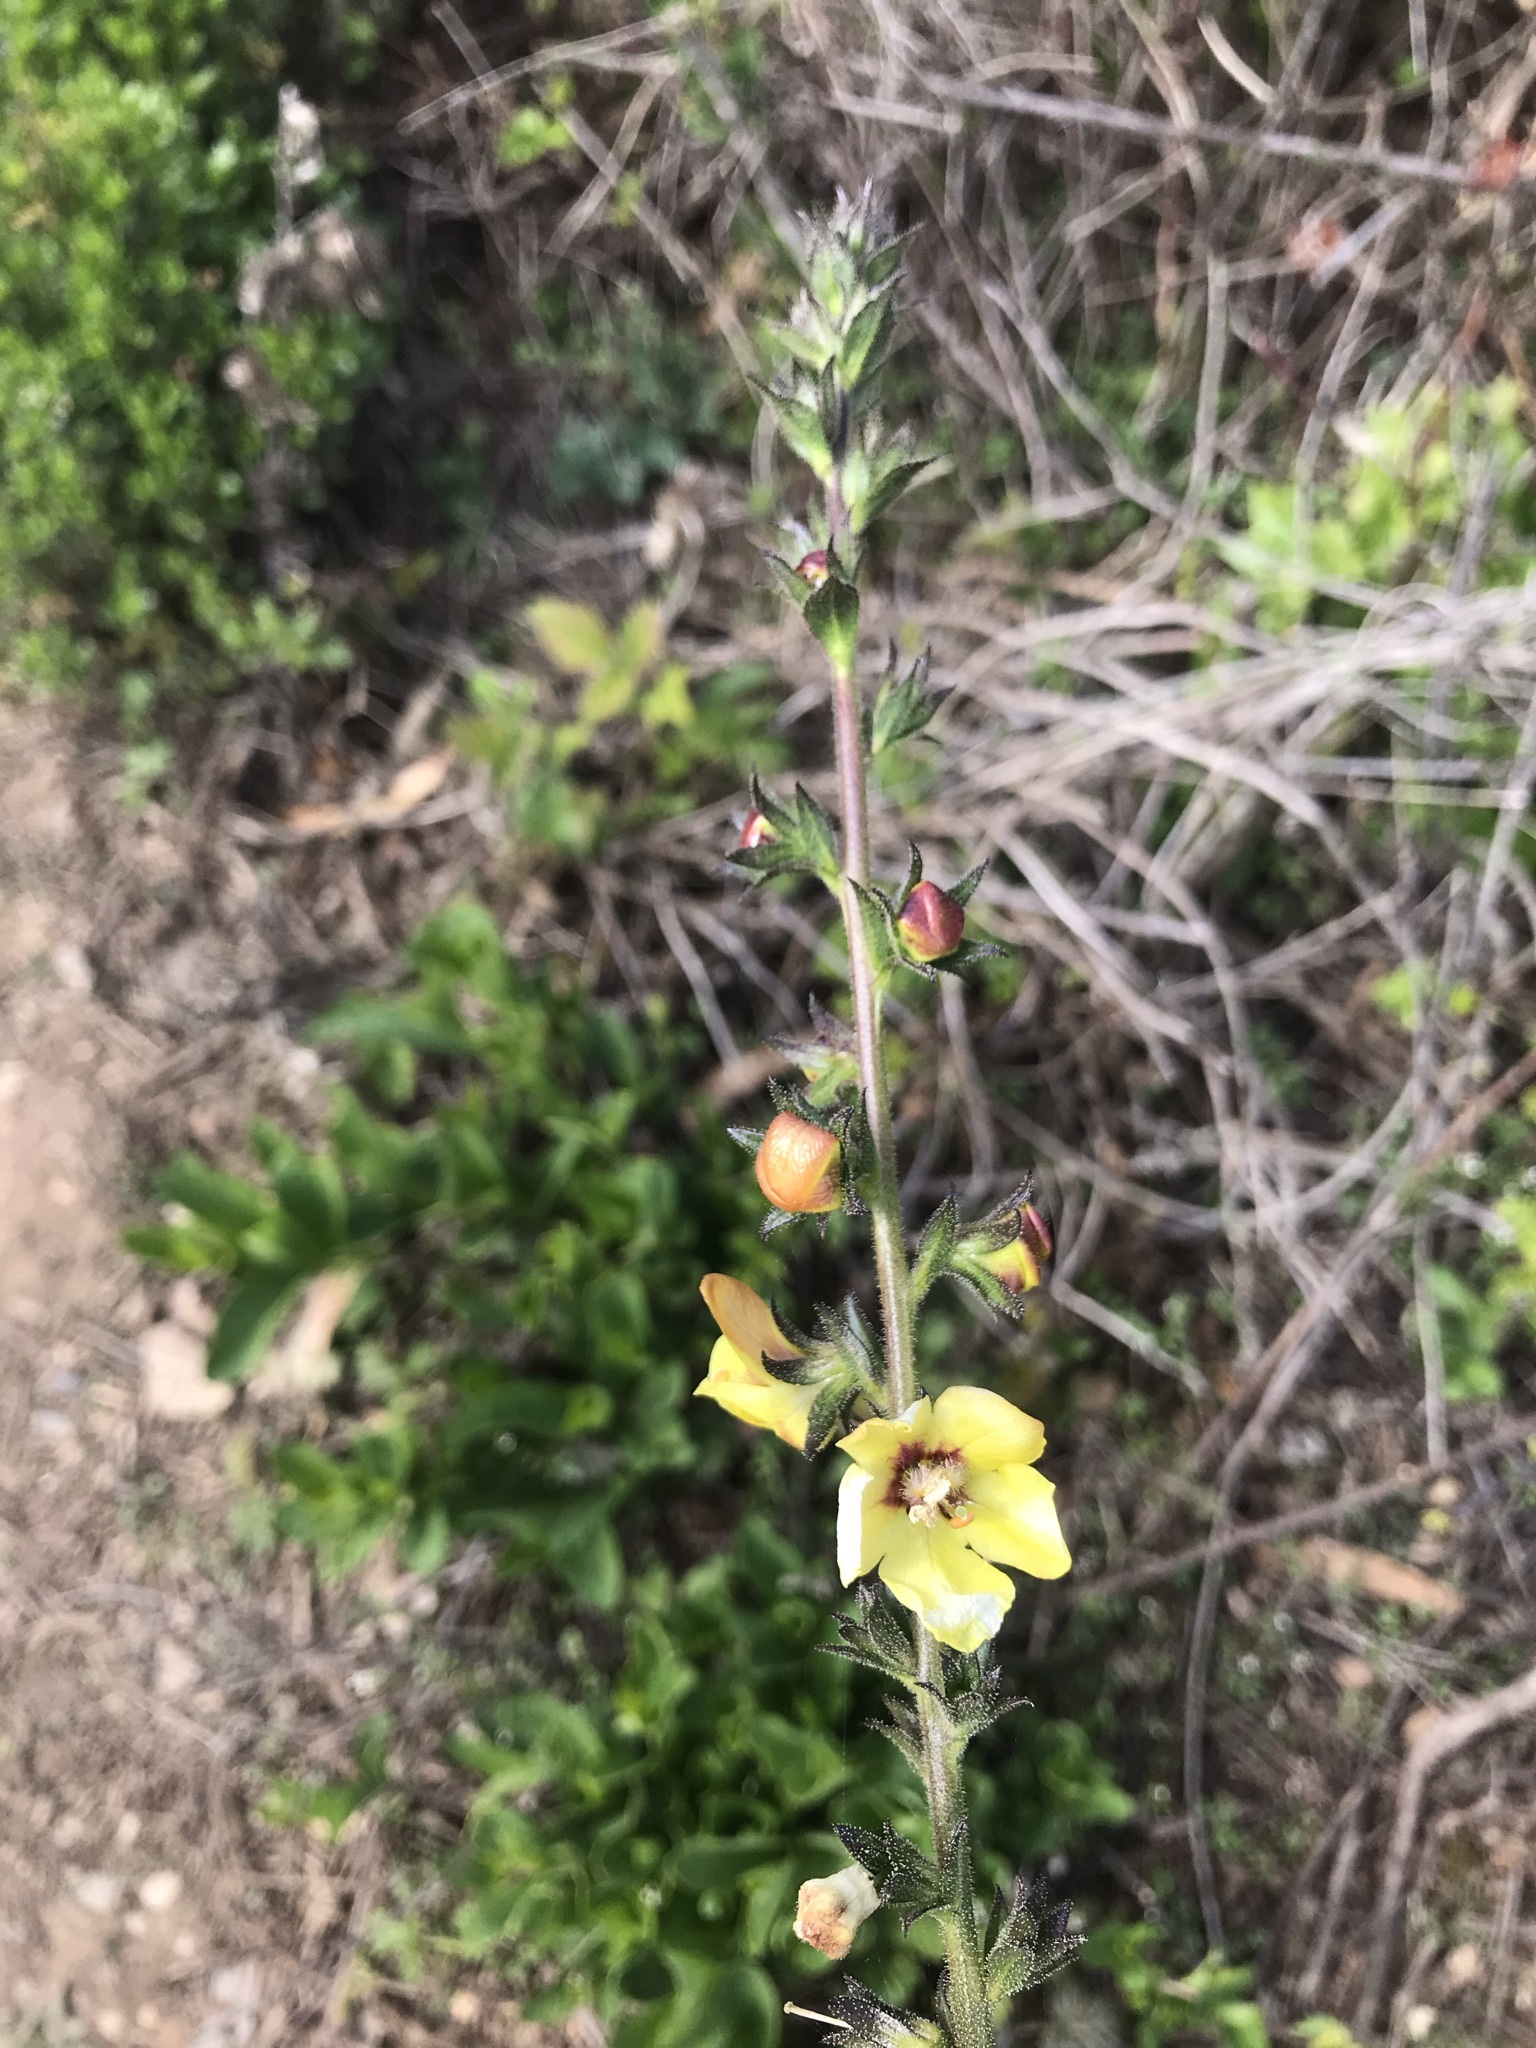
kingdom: Plantae
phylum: Tracheophyta
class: Magnoliopsida
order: Lamiales
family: Scrophulariaceae
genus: Verbascum
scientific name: Verbascum virgatum
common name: Twiggy mullein
